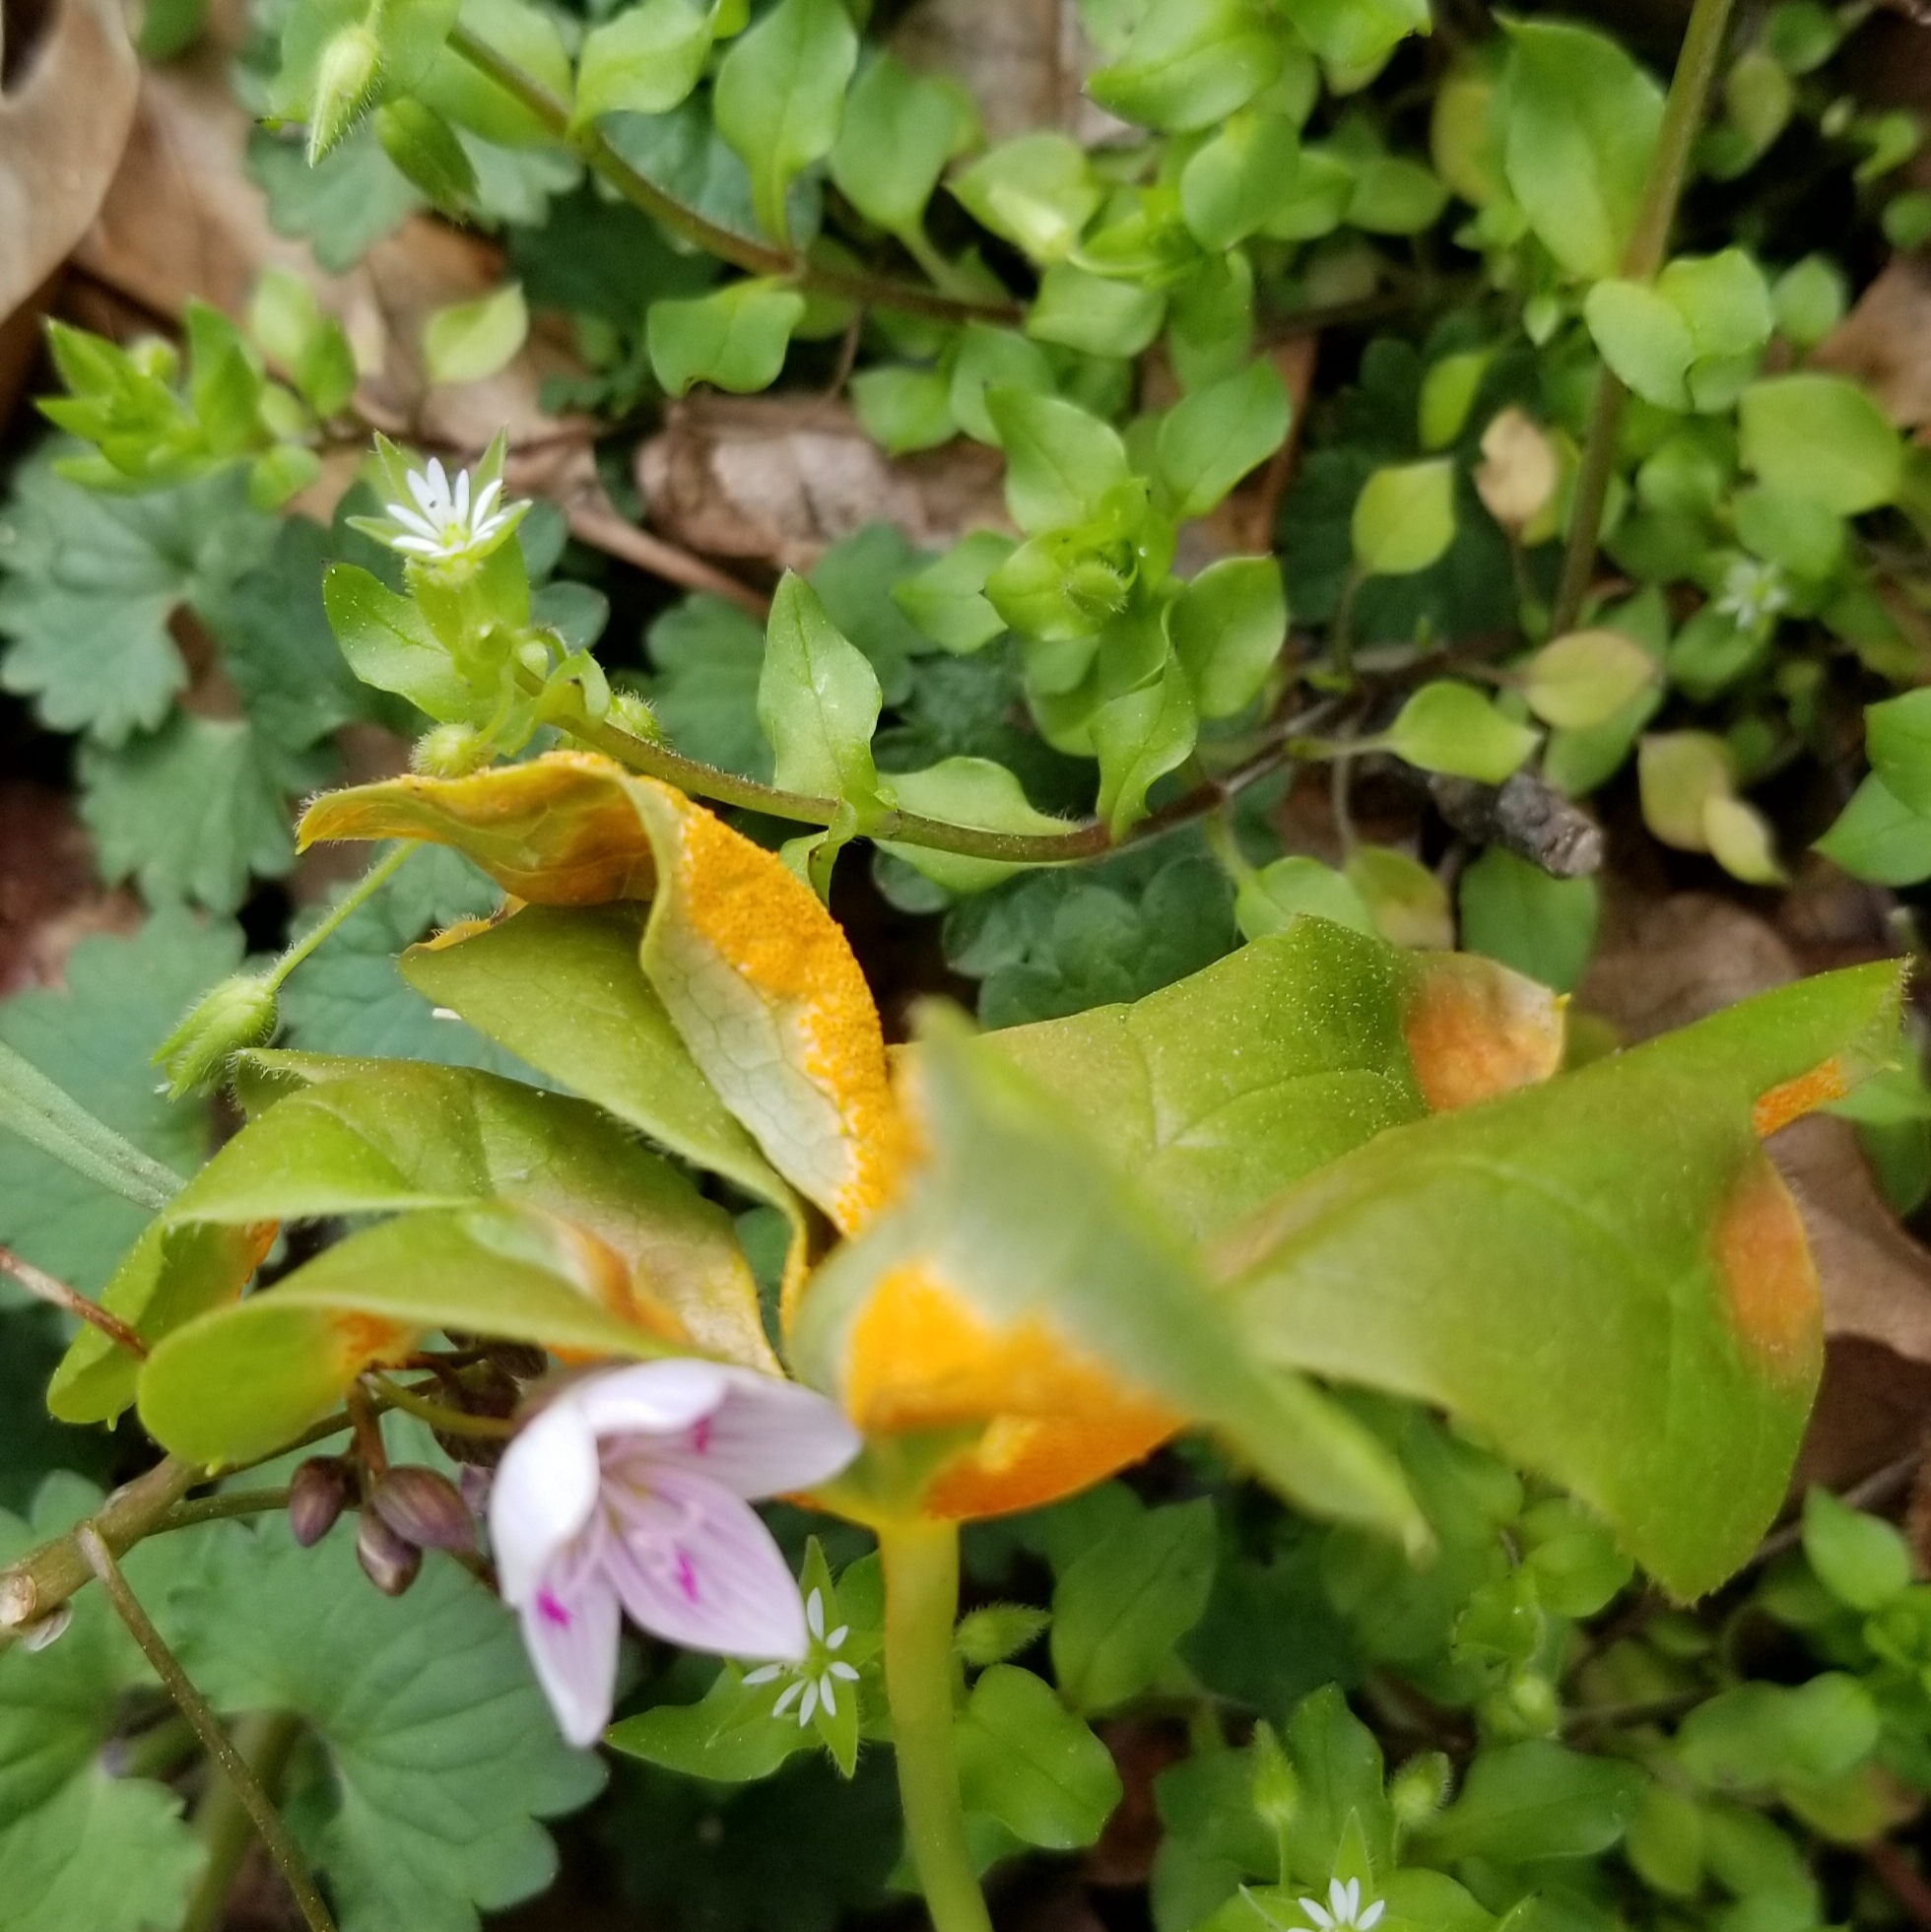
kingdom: Plantae
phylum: Tracheophyta
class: Magnoliopsida
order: Caryophyllales
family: Montiaceae
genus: Claytonia
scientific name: Claytonia virginica
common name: Virginia springbeauty
